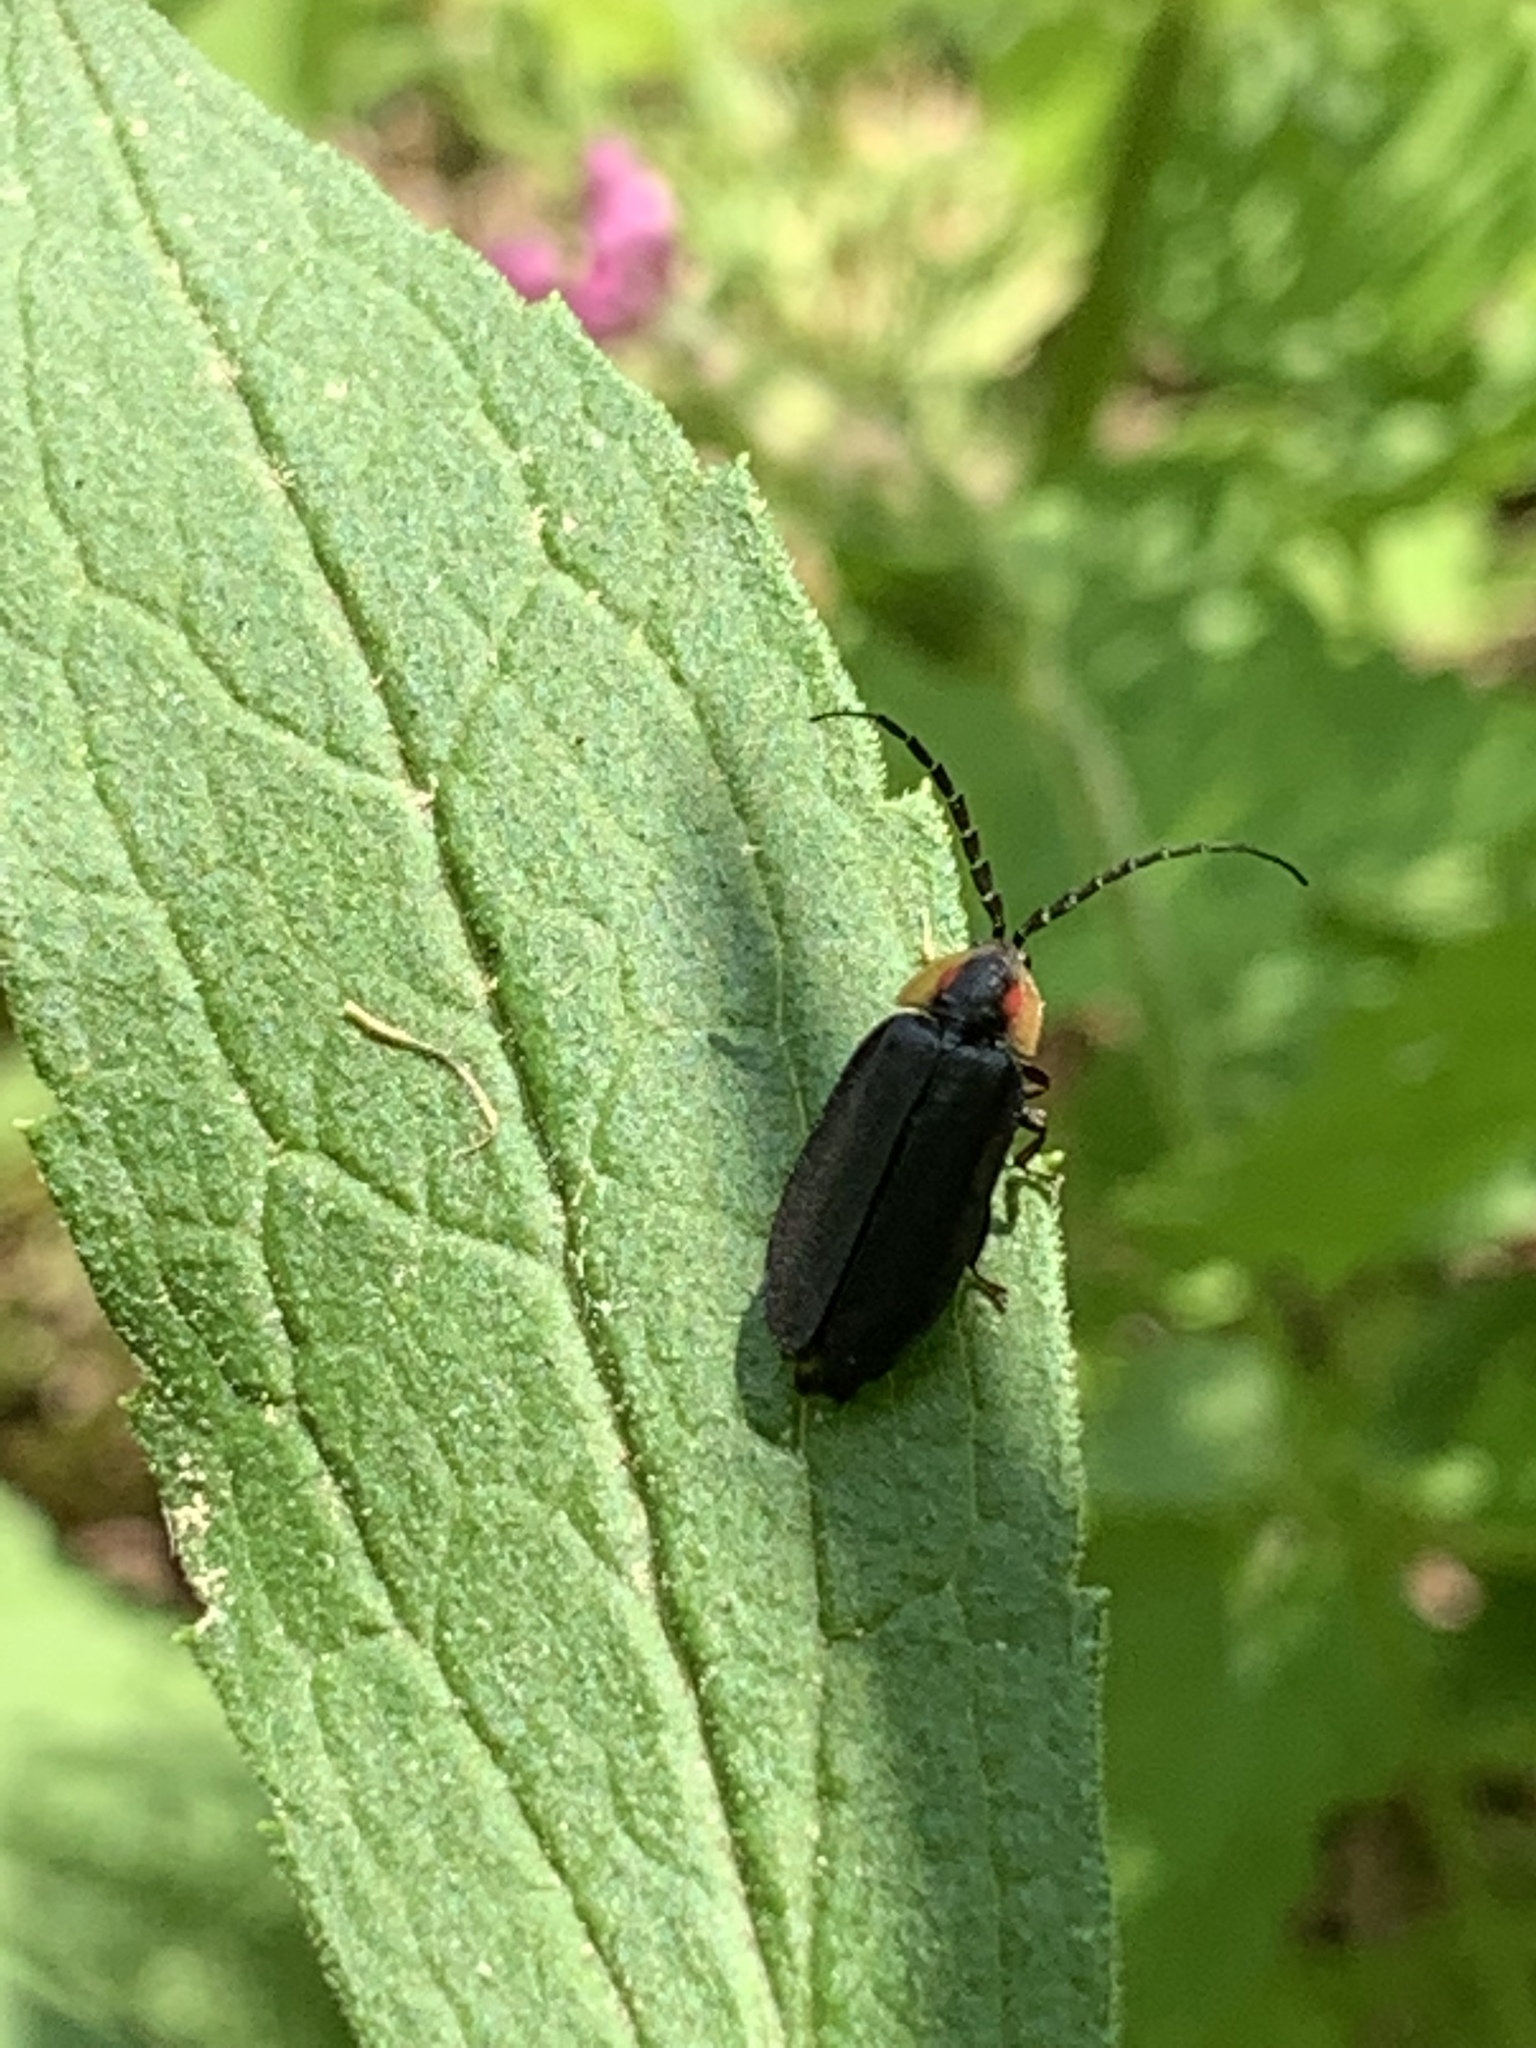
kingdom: Animalia
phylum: Arthropoda
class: Insecta
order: Coleoptera
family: Lampyridae
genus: Lucidota
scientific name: Lucidota atra
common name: Black firefly
